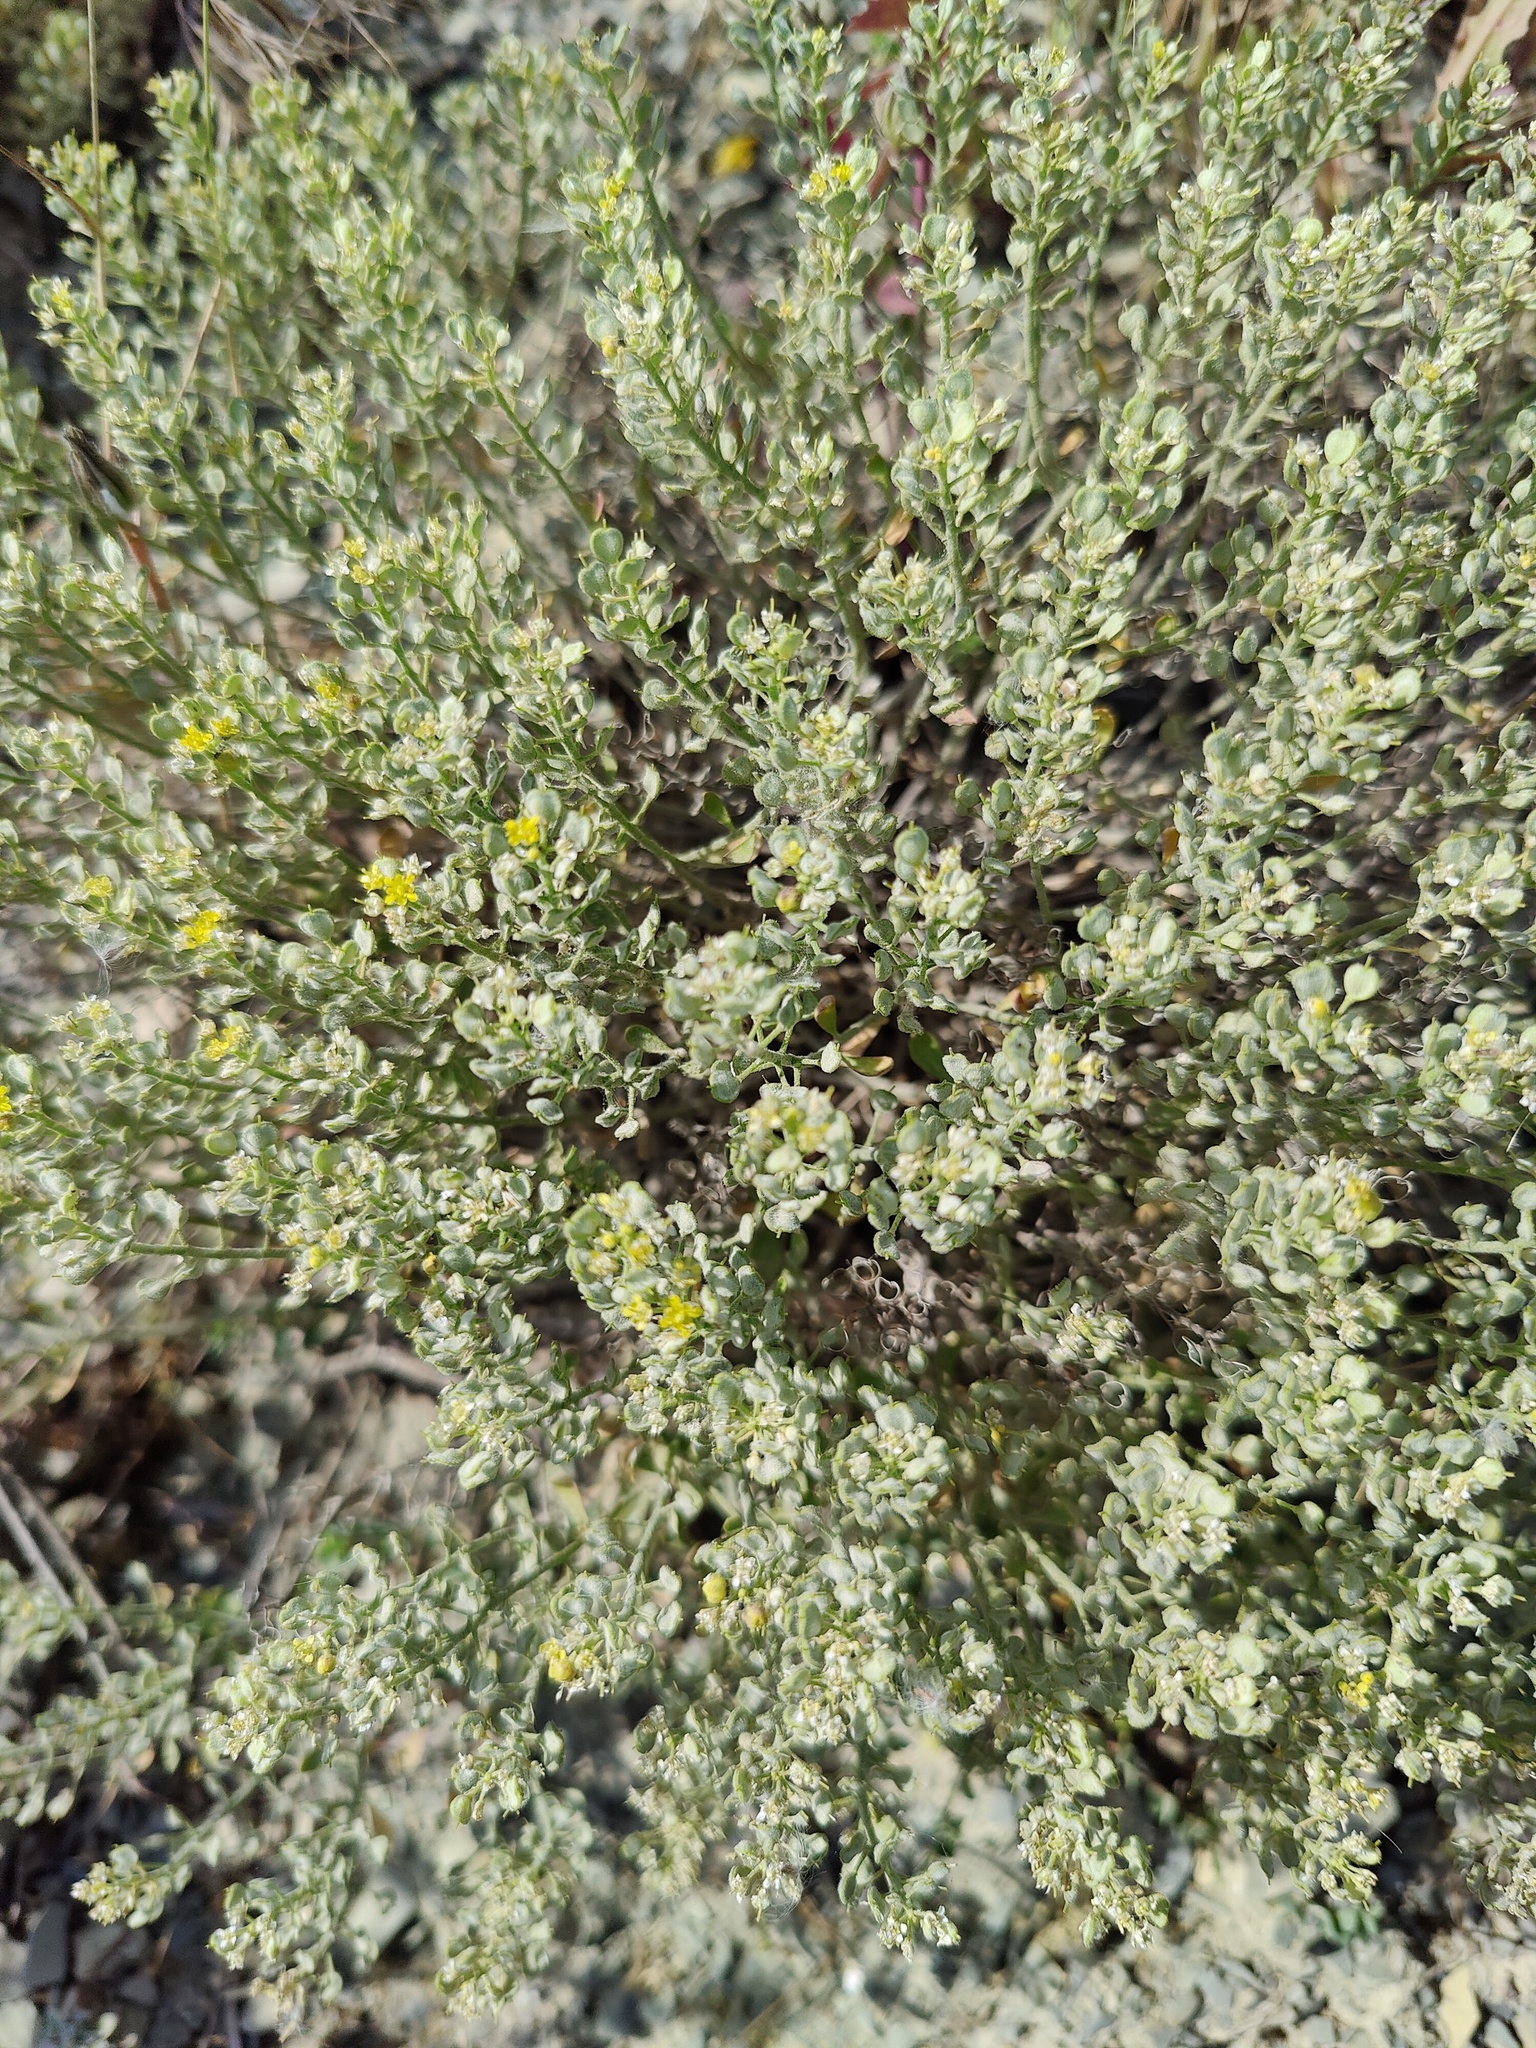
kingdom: Plantae
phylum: Tracheophyta
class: Magnoliopsida
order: Brassicales
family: Brassicaceae
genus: Odontarrhena
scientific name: Odontarrhena obtusifolia
